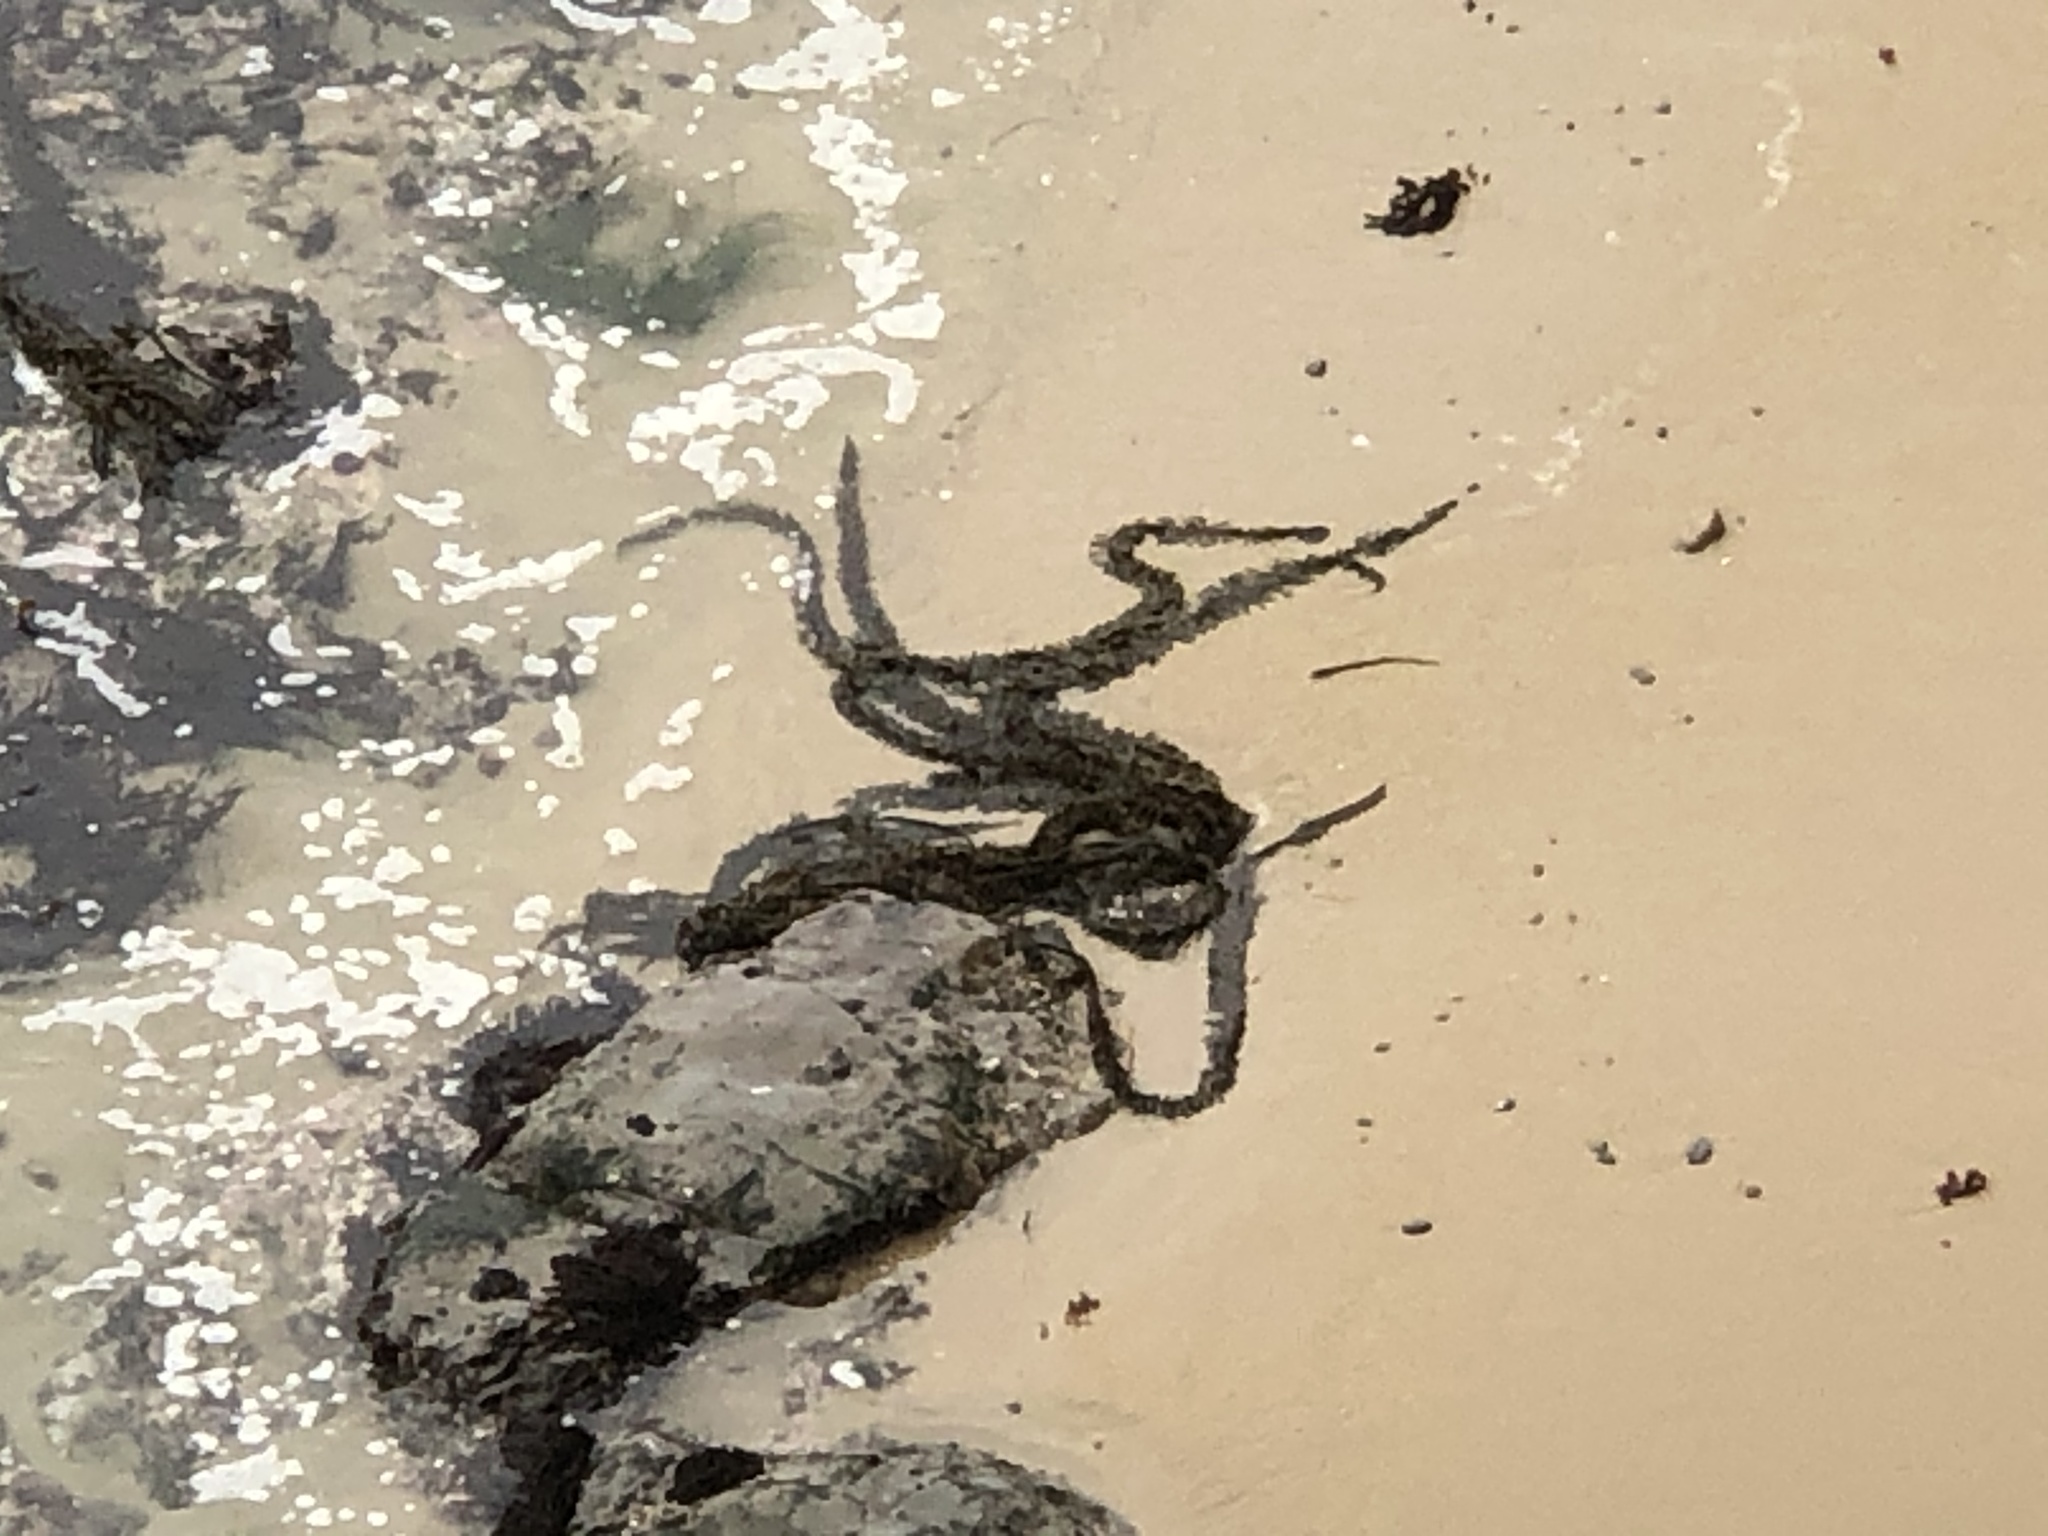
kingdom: Chromista
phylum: Ochrophyta
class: Phaeophyceae
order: Laminariales
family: Lessoniaceae
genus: Egregia
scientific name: Egregia menziesii
